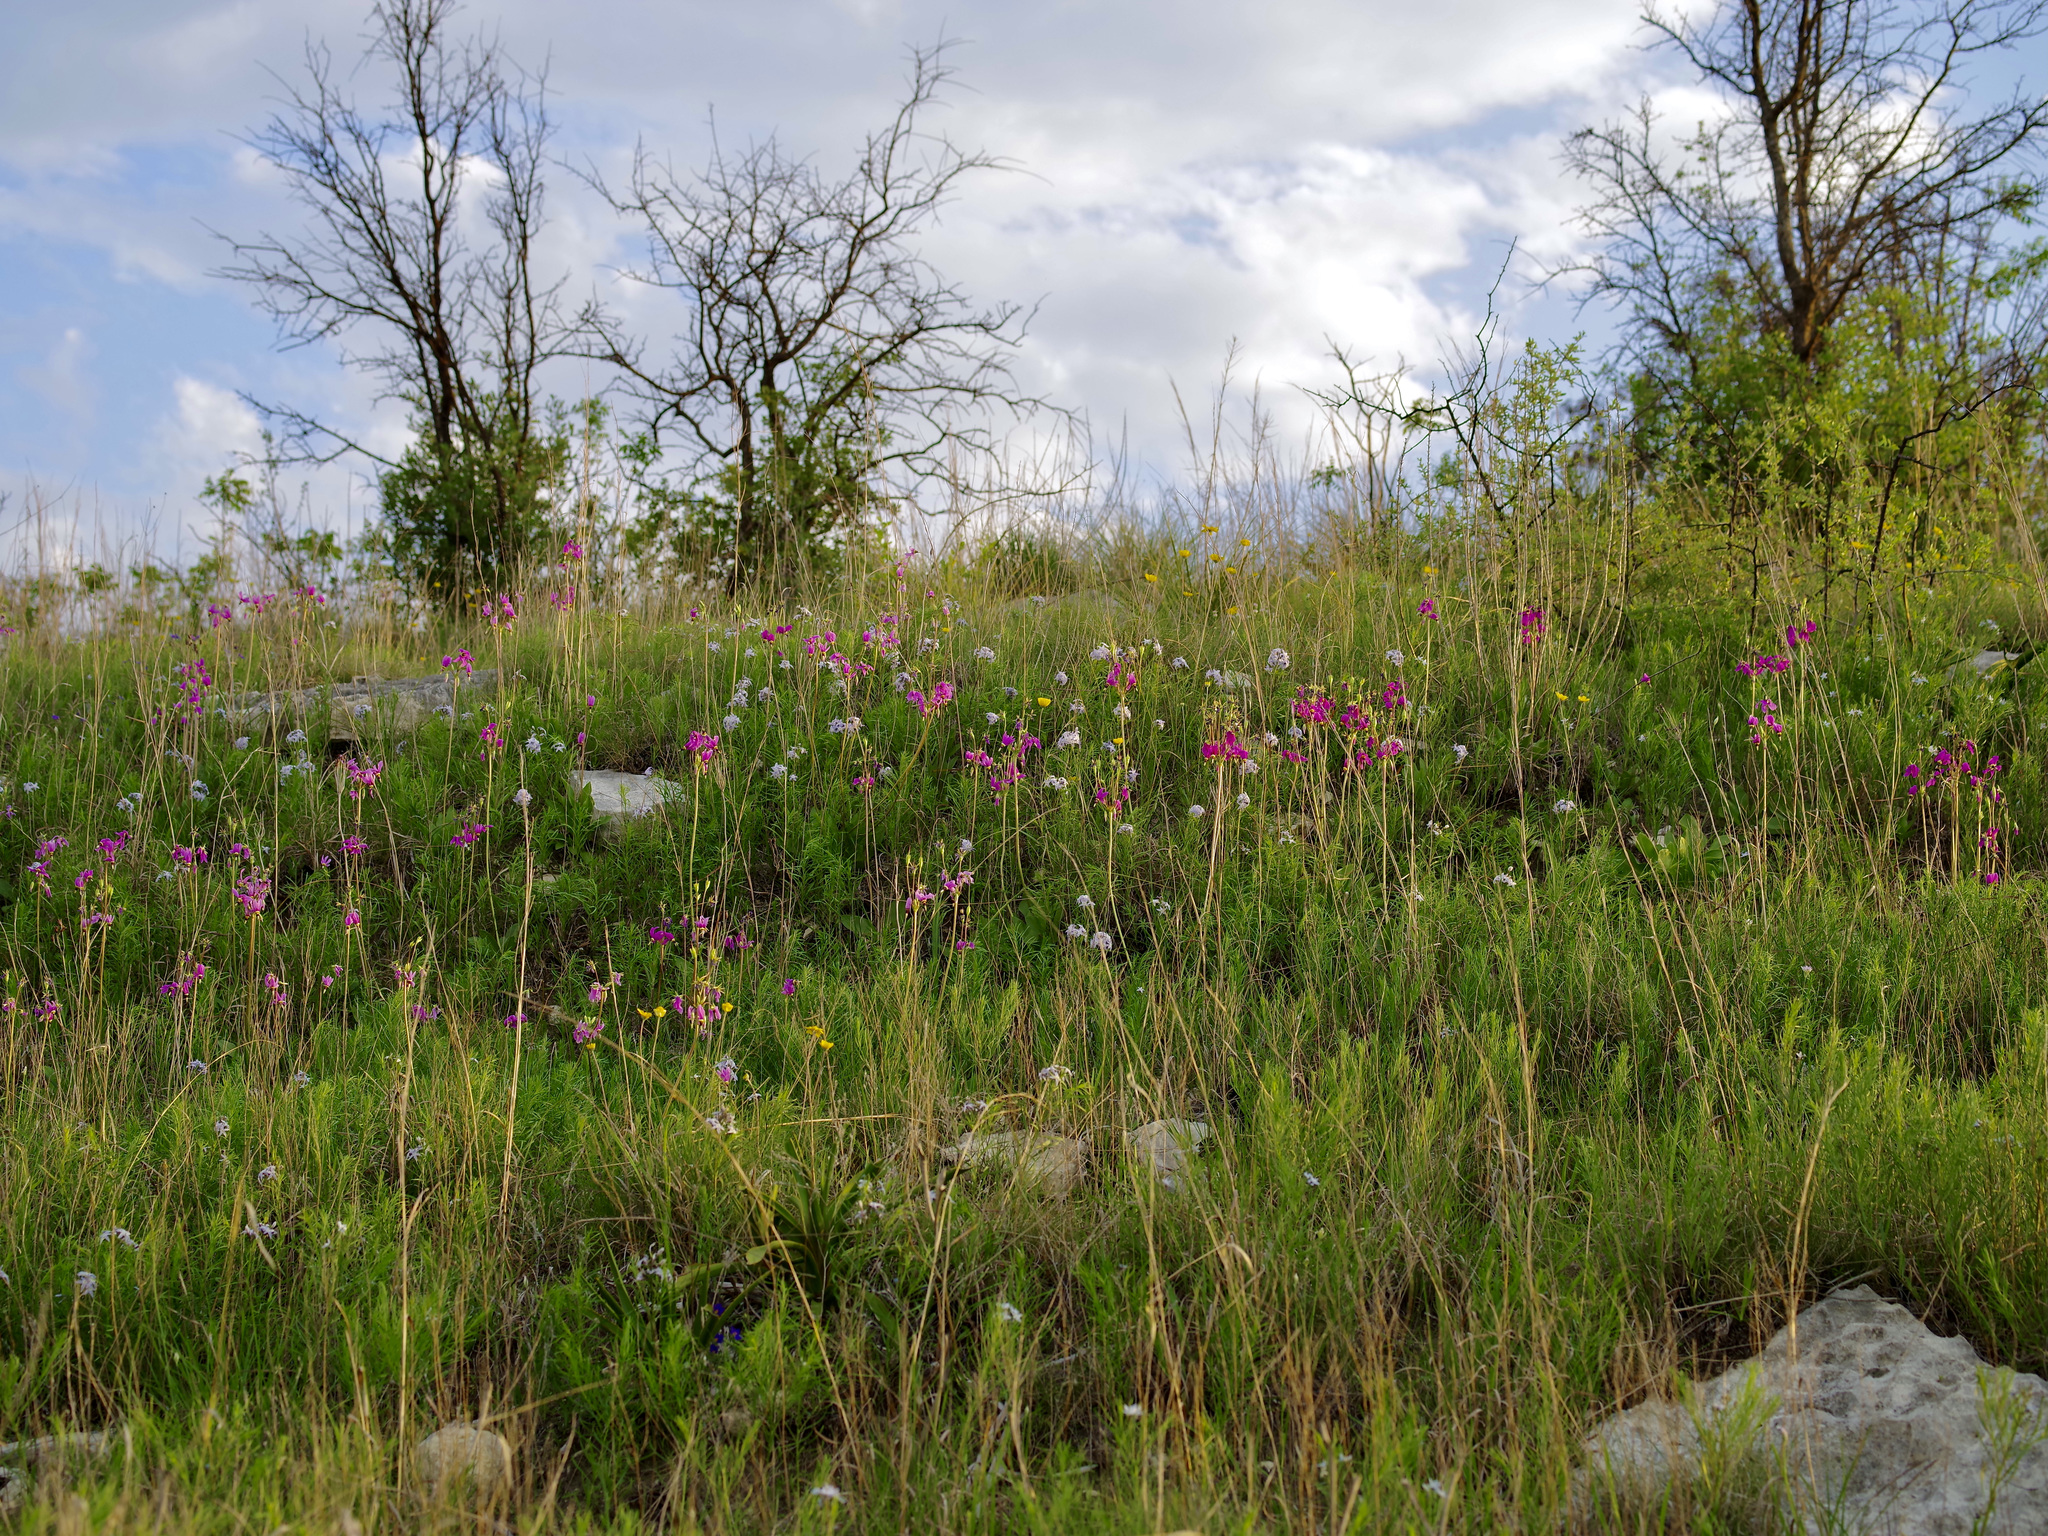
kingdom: Plantae
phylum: Tracheophyta
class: Magnoliopsida
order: Ericales
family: Primulaceae
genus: Dodecatheon
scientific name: Dodecatheon meadia
